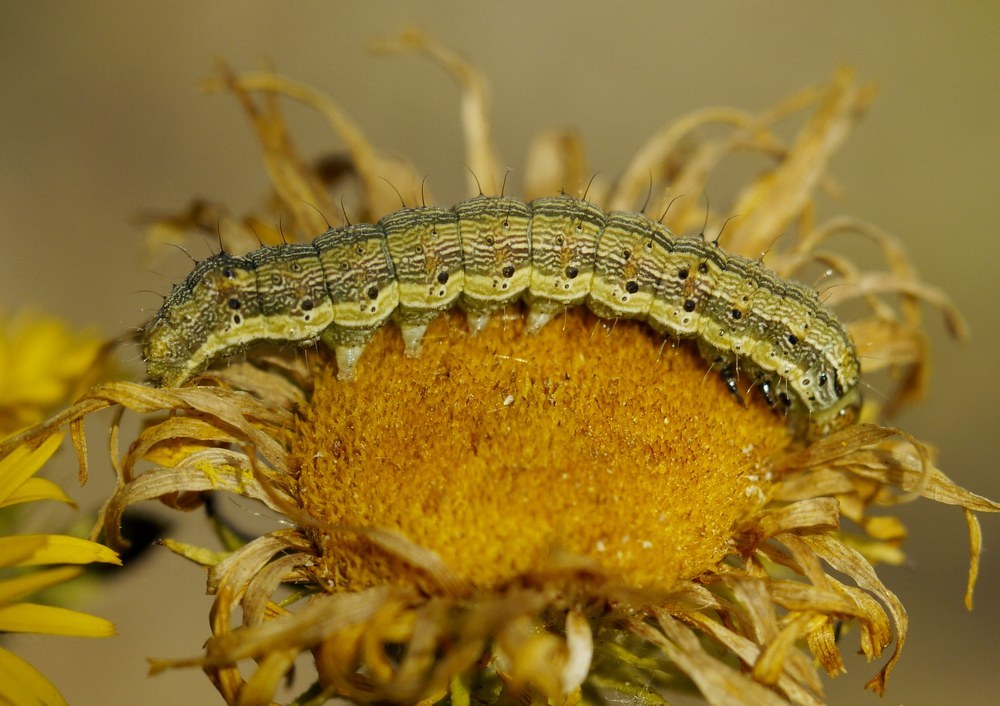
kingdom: Animalia
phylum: Arthropoda
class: Insecta
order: Lepidoptera
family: Noctuidae
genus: Helicoverpa
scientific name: Helicoverpa armigera
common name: Cotton bollworm
